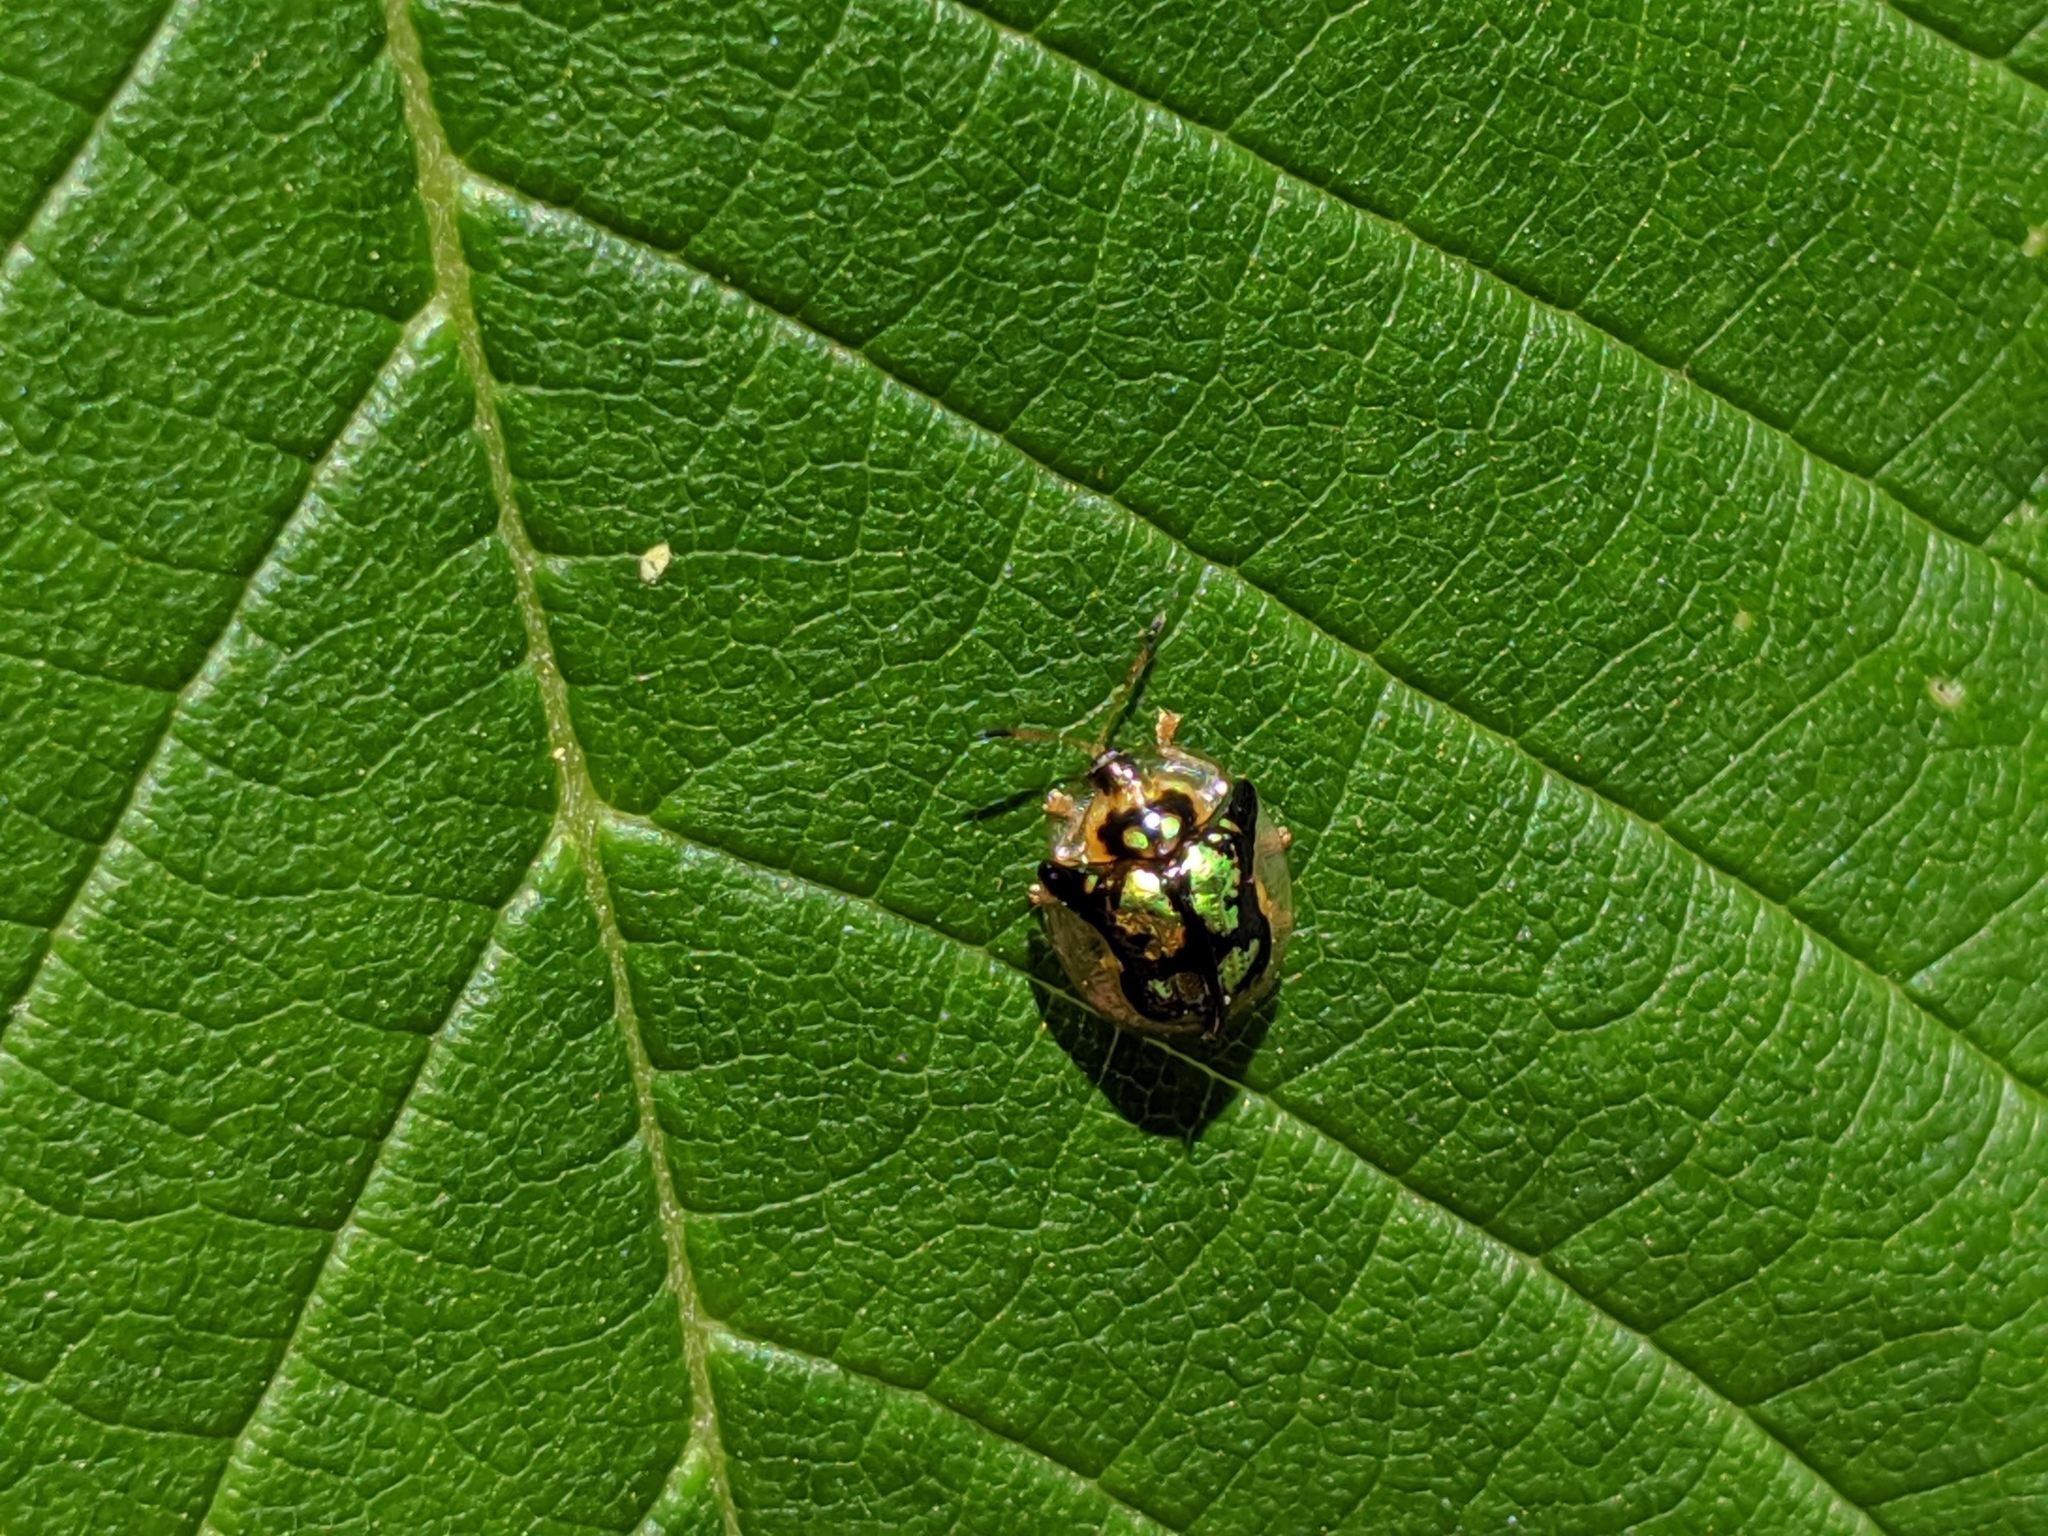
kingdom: Animalia
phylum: Arthropoda
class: Insecta
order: Coleoptera
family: Chrysomelidae
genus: Deloyala
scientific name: Deloyala guttata
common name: Mottled tortoise beetle
